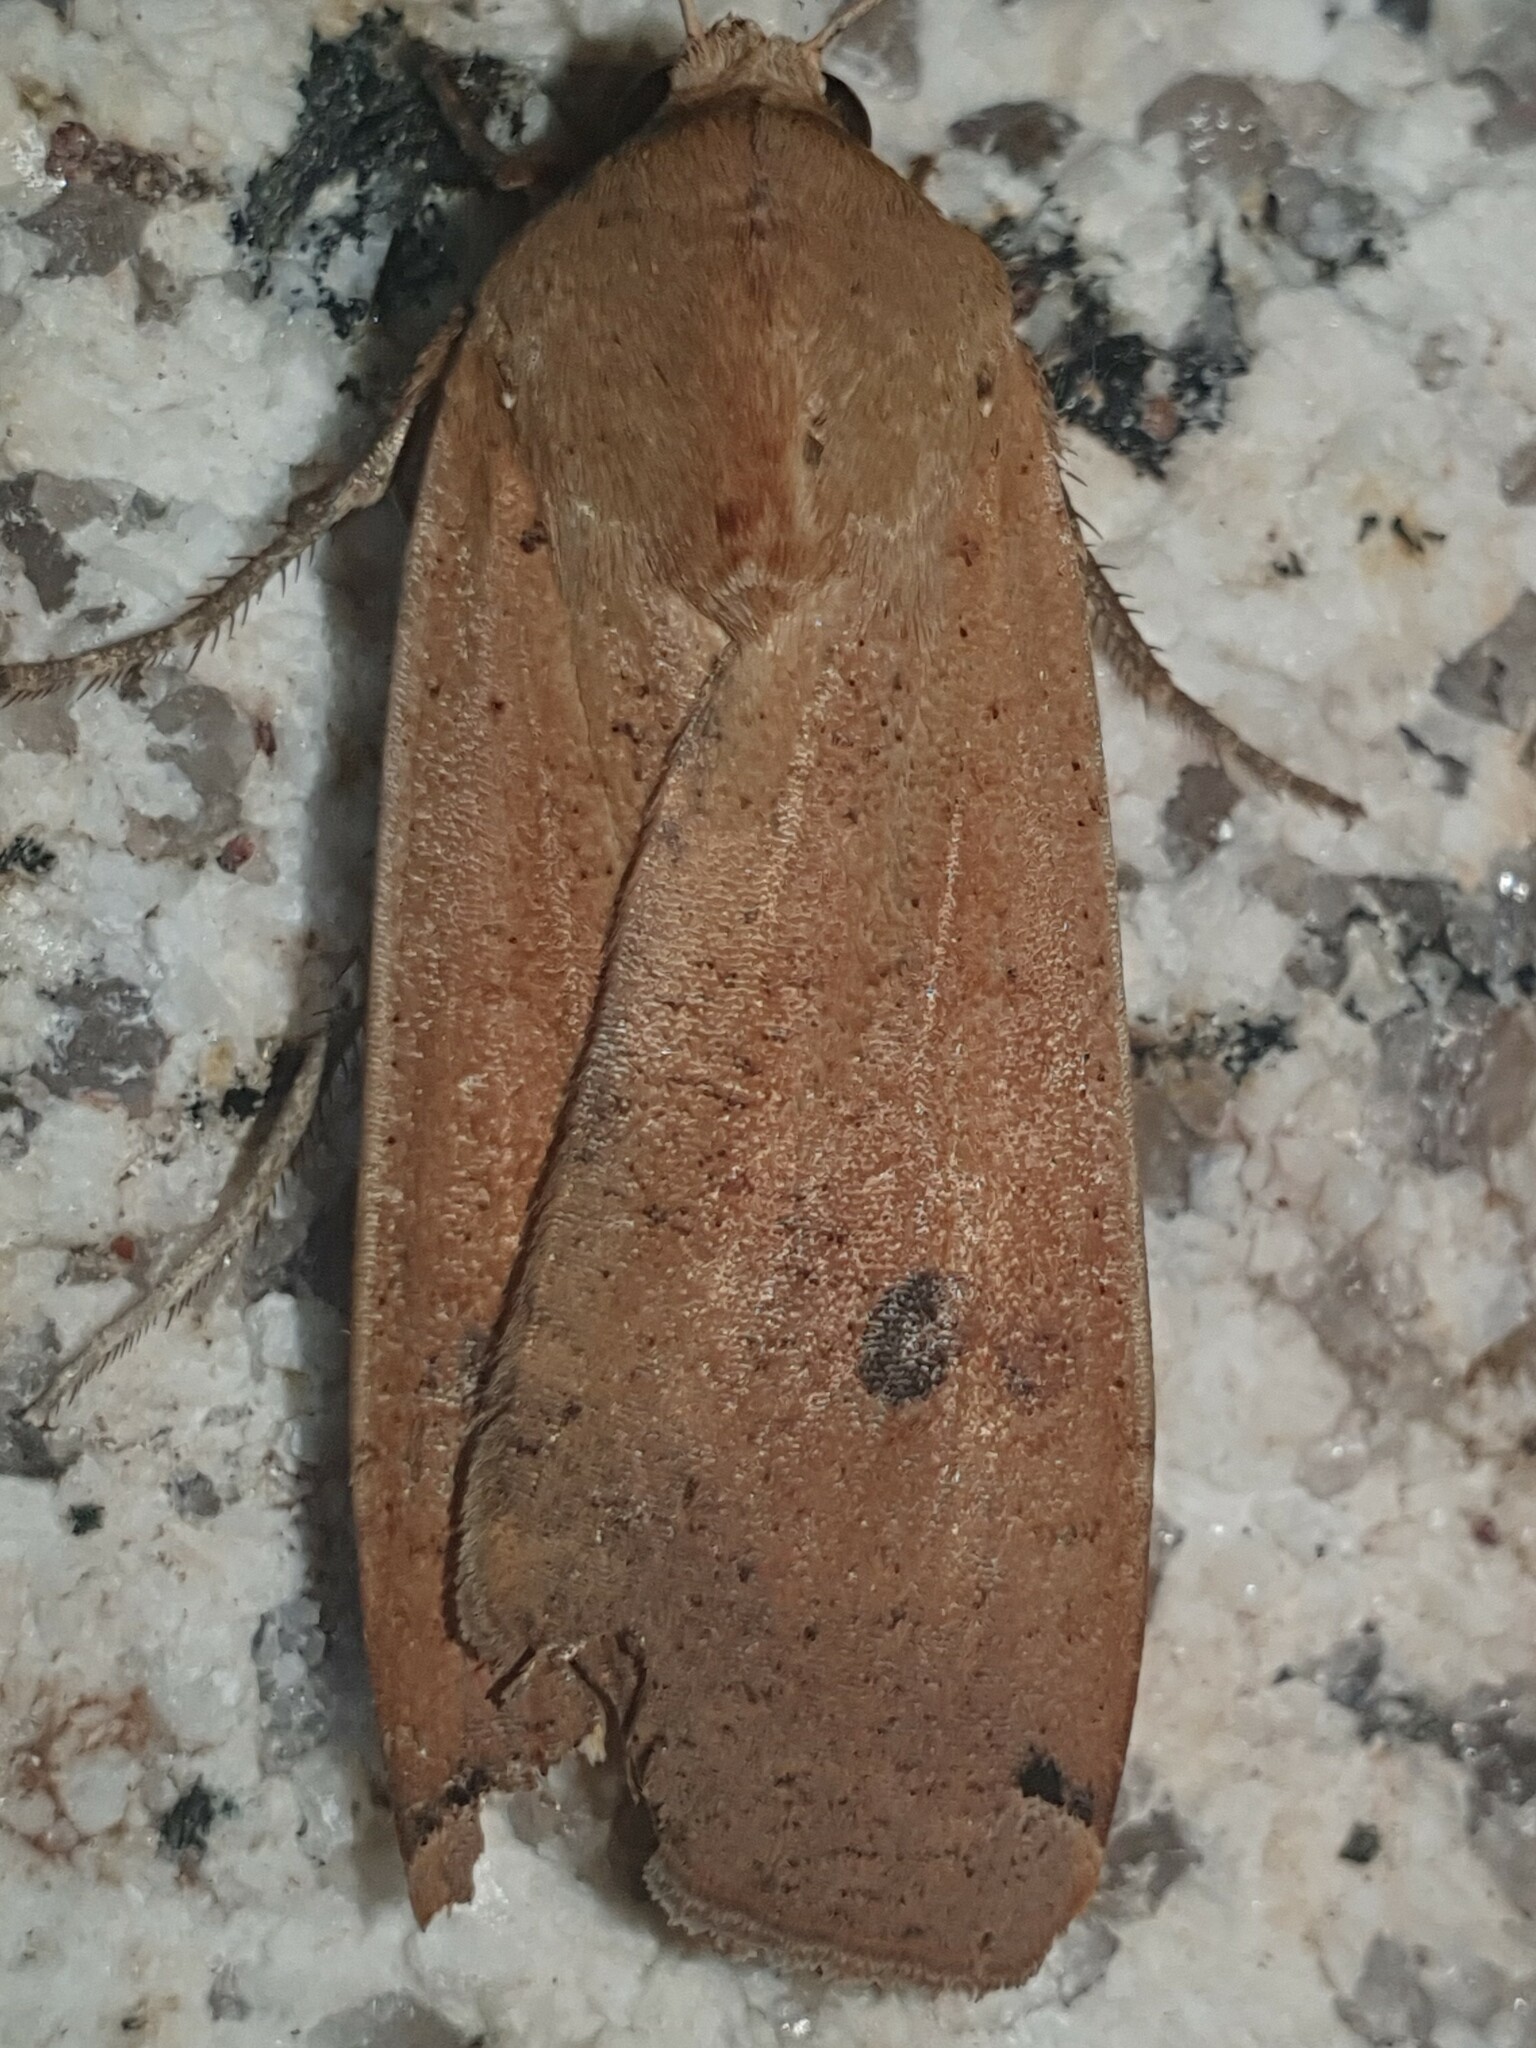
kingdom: Animalia
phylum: Arthropoda
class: Insecta
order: Lepidoptera
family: Noctuidae
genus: Noctua
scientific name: Noctua pronuba
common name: Large yellow underwing
